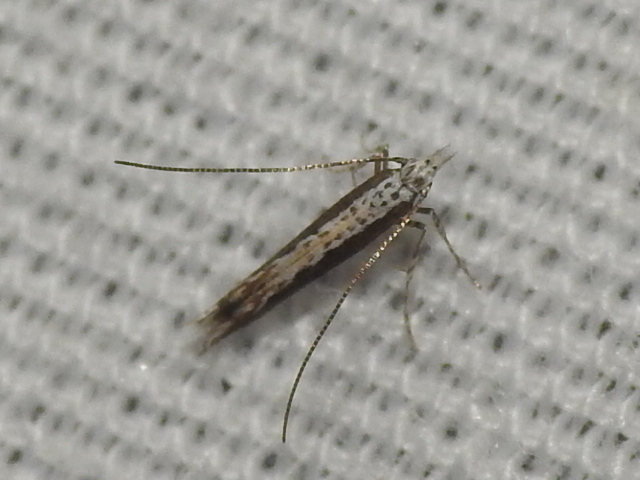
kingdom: Plantae
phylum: Rhodophyta
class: Florideophyceae
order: Gracilariales
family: Gracilariaceae
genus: Gracilaria
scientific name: Gracilaria
